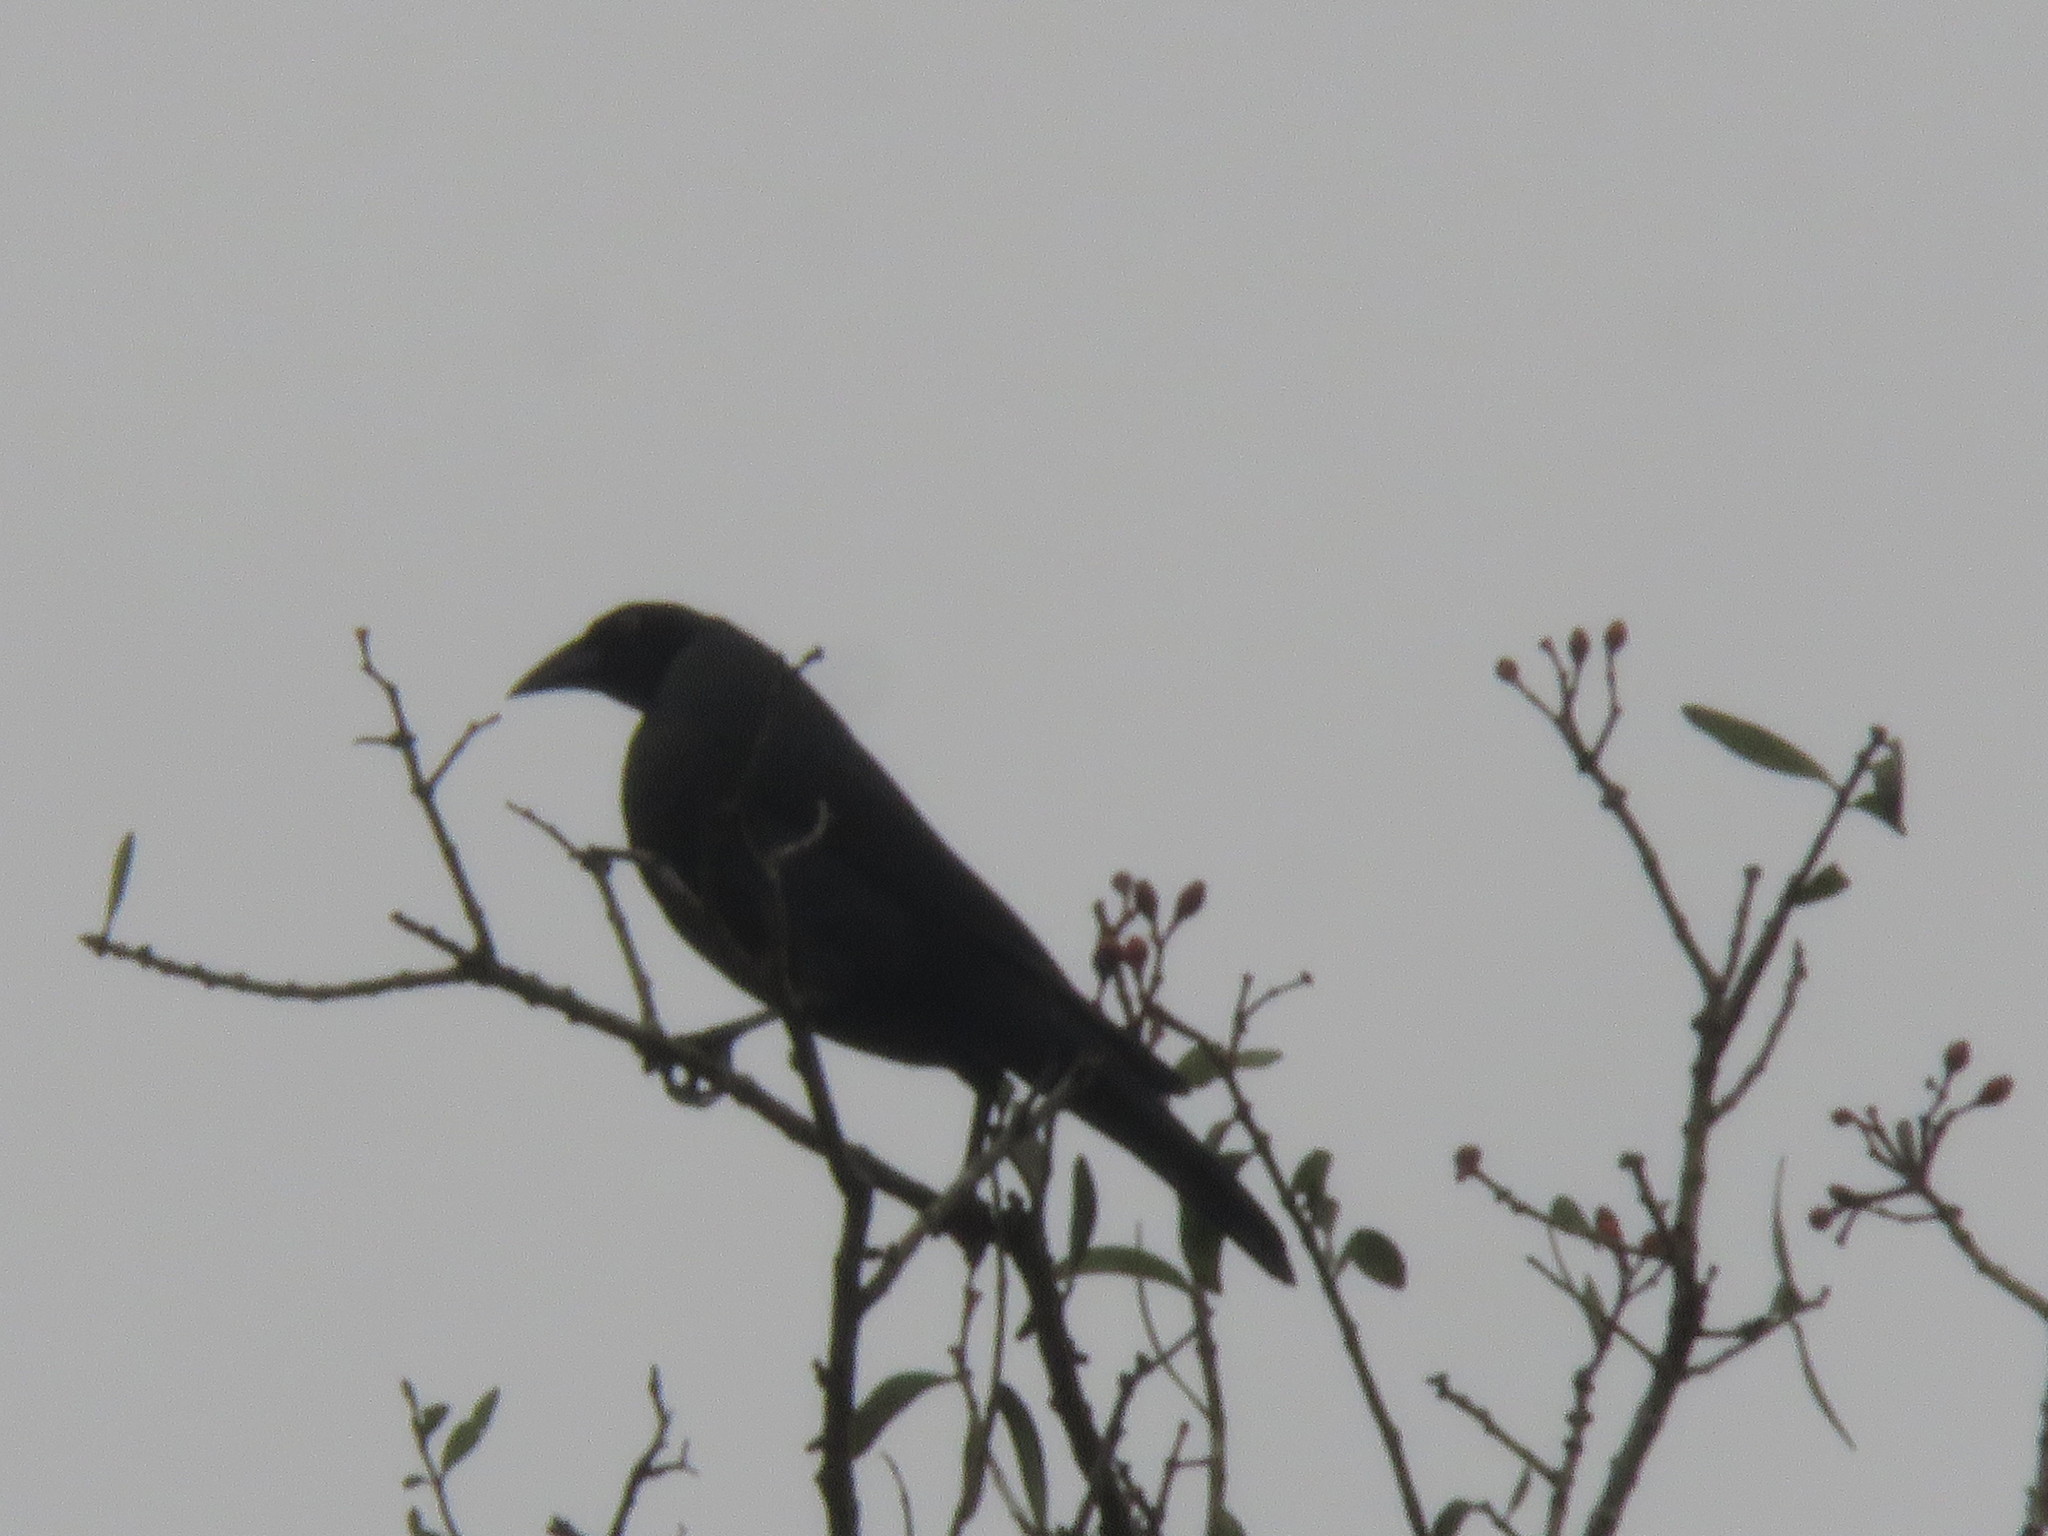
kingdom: Animalia
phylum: Chordata
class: Aves
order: Passeriformes
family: Icteridae
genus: Molothrus
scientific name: Molothrus oryzivorus
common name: Giant cowbird
